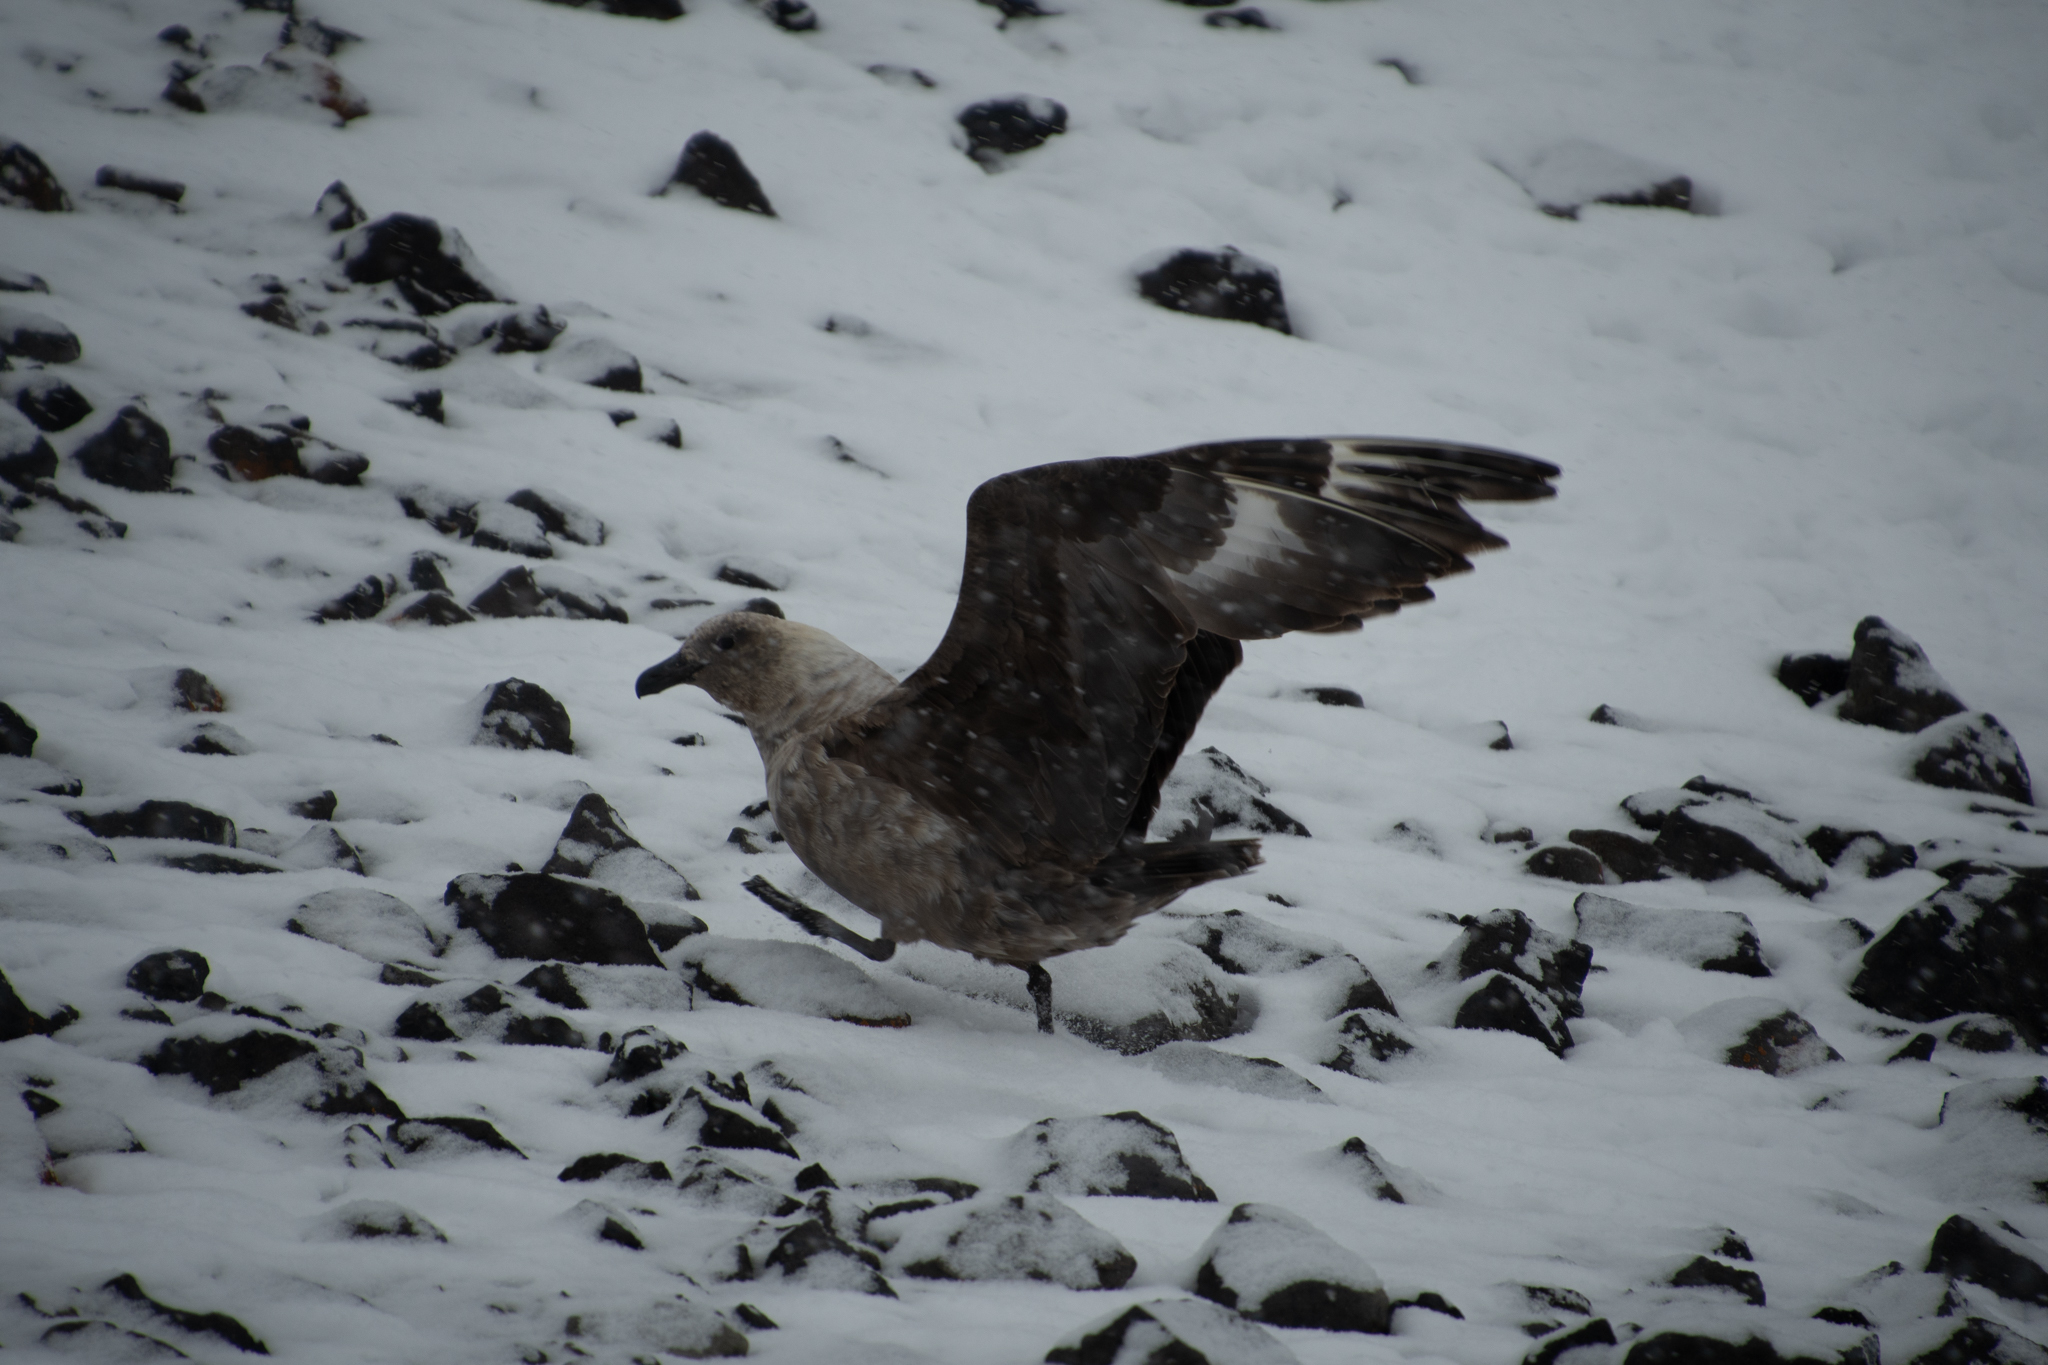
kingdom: Animalia
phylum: Chordata
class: Aves
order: Charadriiformes
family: Stercorariidae
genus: Stercorarius
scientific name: Stercorarius maccormicki
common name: South polar skua
